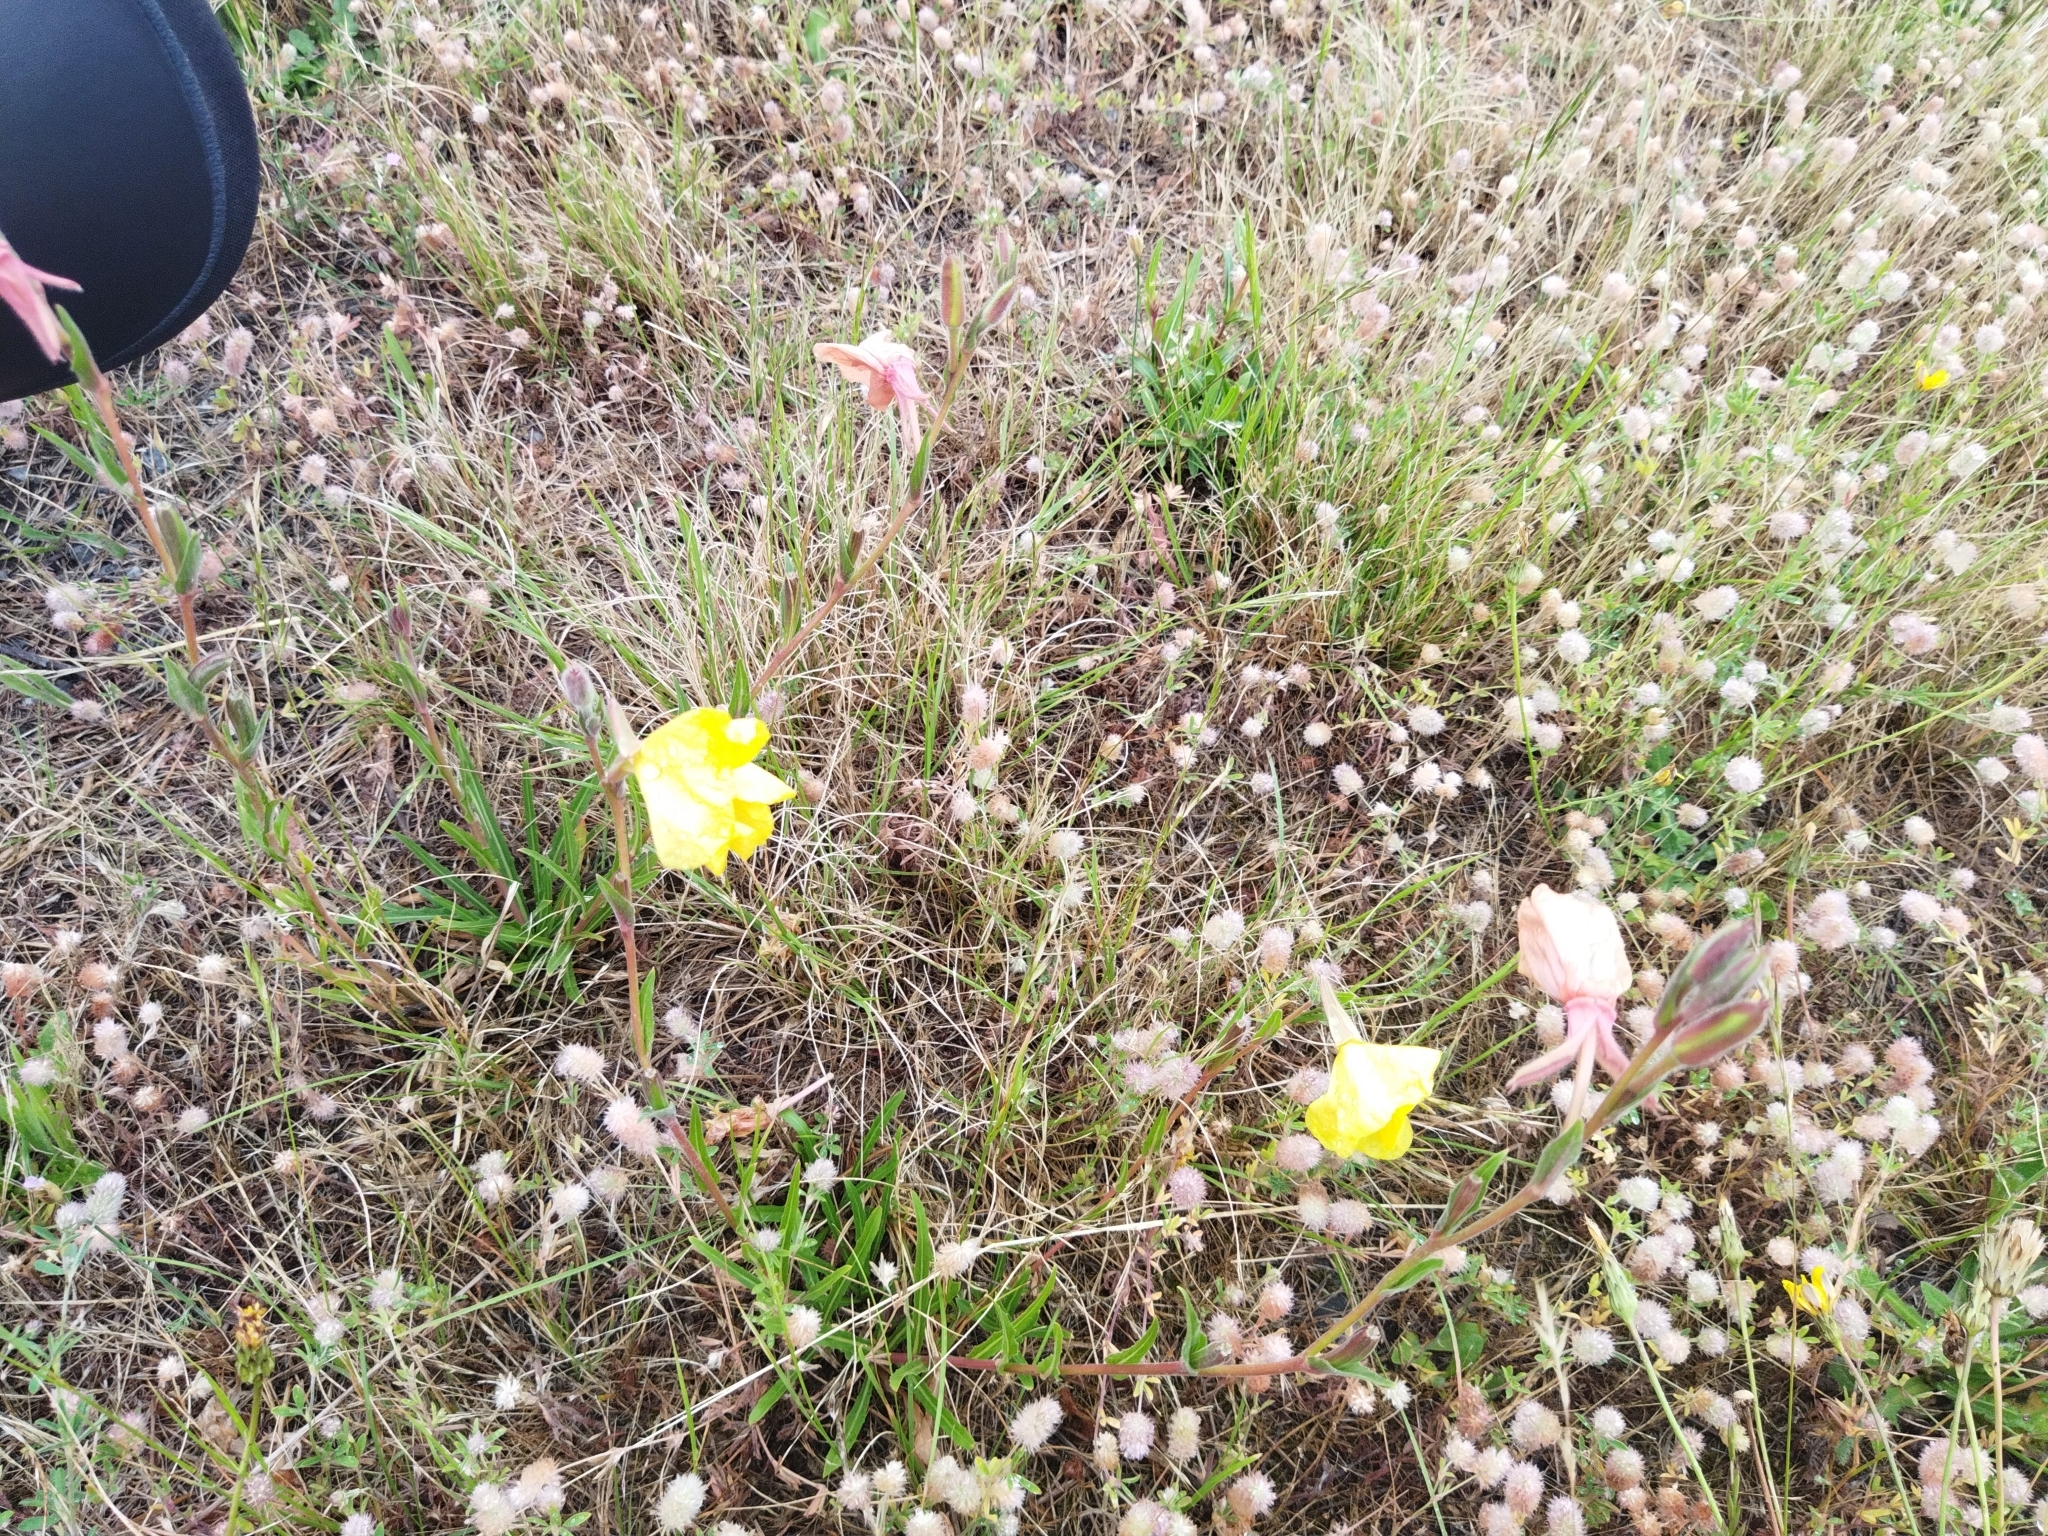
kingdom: Plantae
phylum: Tracheophyta
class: Magnoliopsida
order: Myrtales
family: Onagraceae
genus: Oenothera
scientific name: Oenothera stricta
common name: Fragrant evening-primrose
